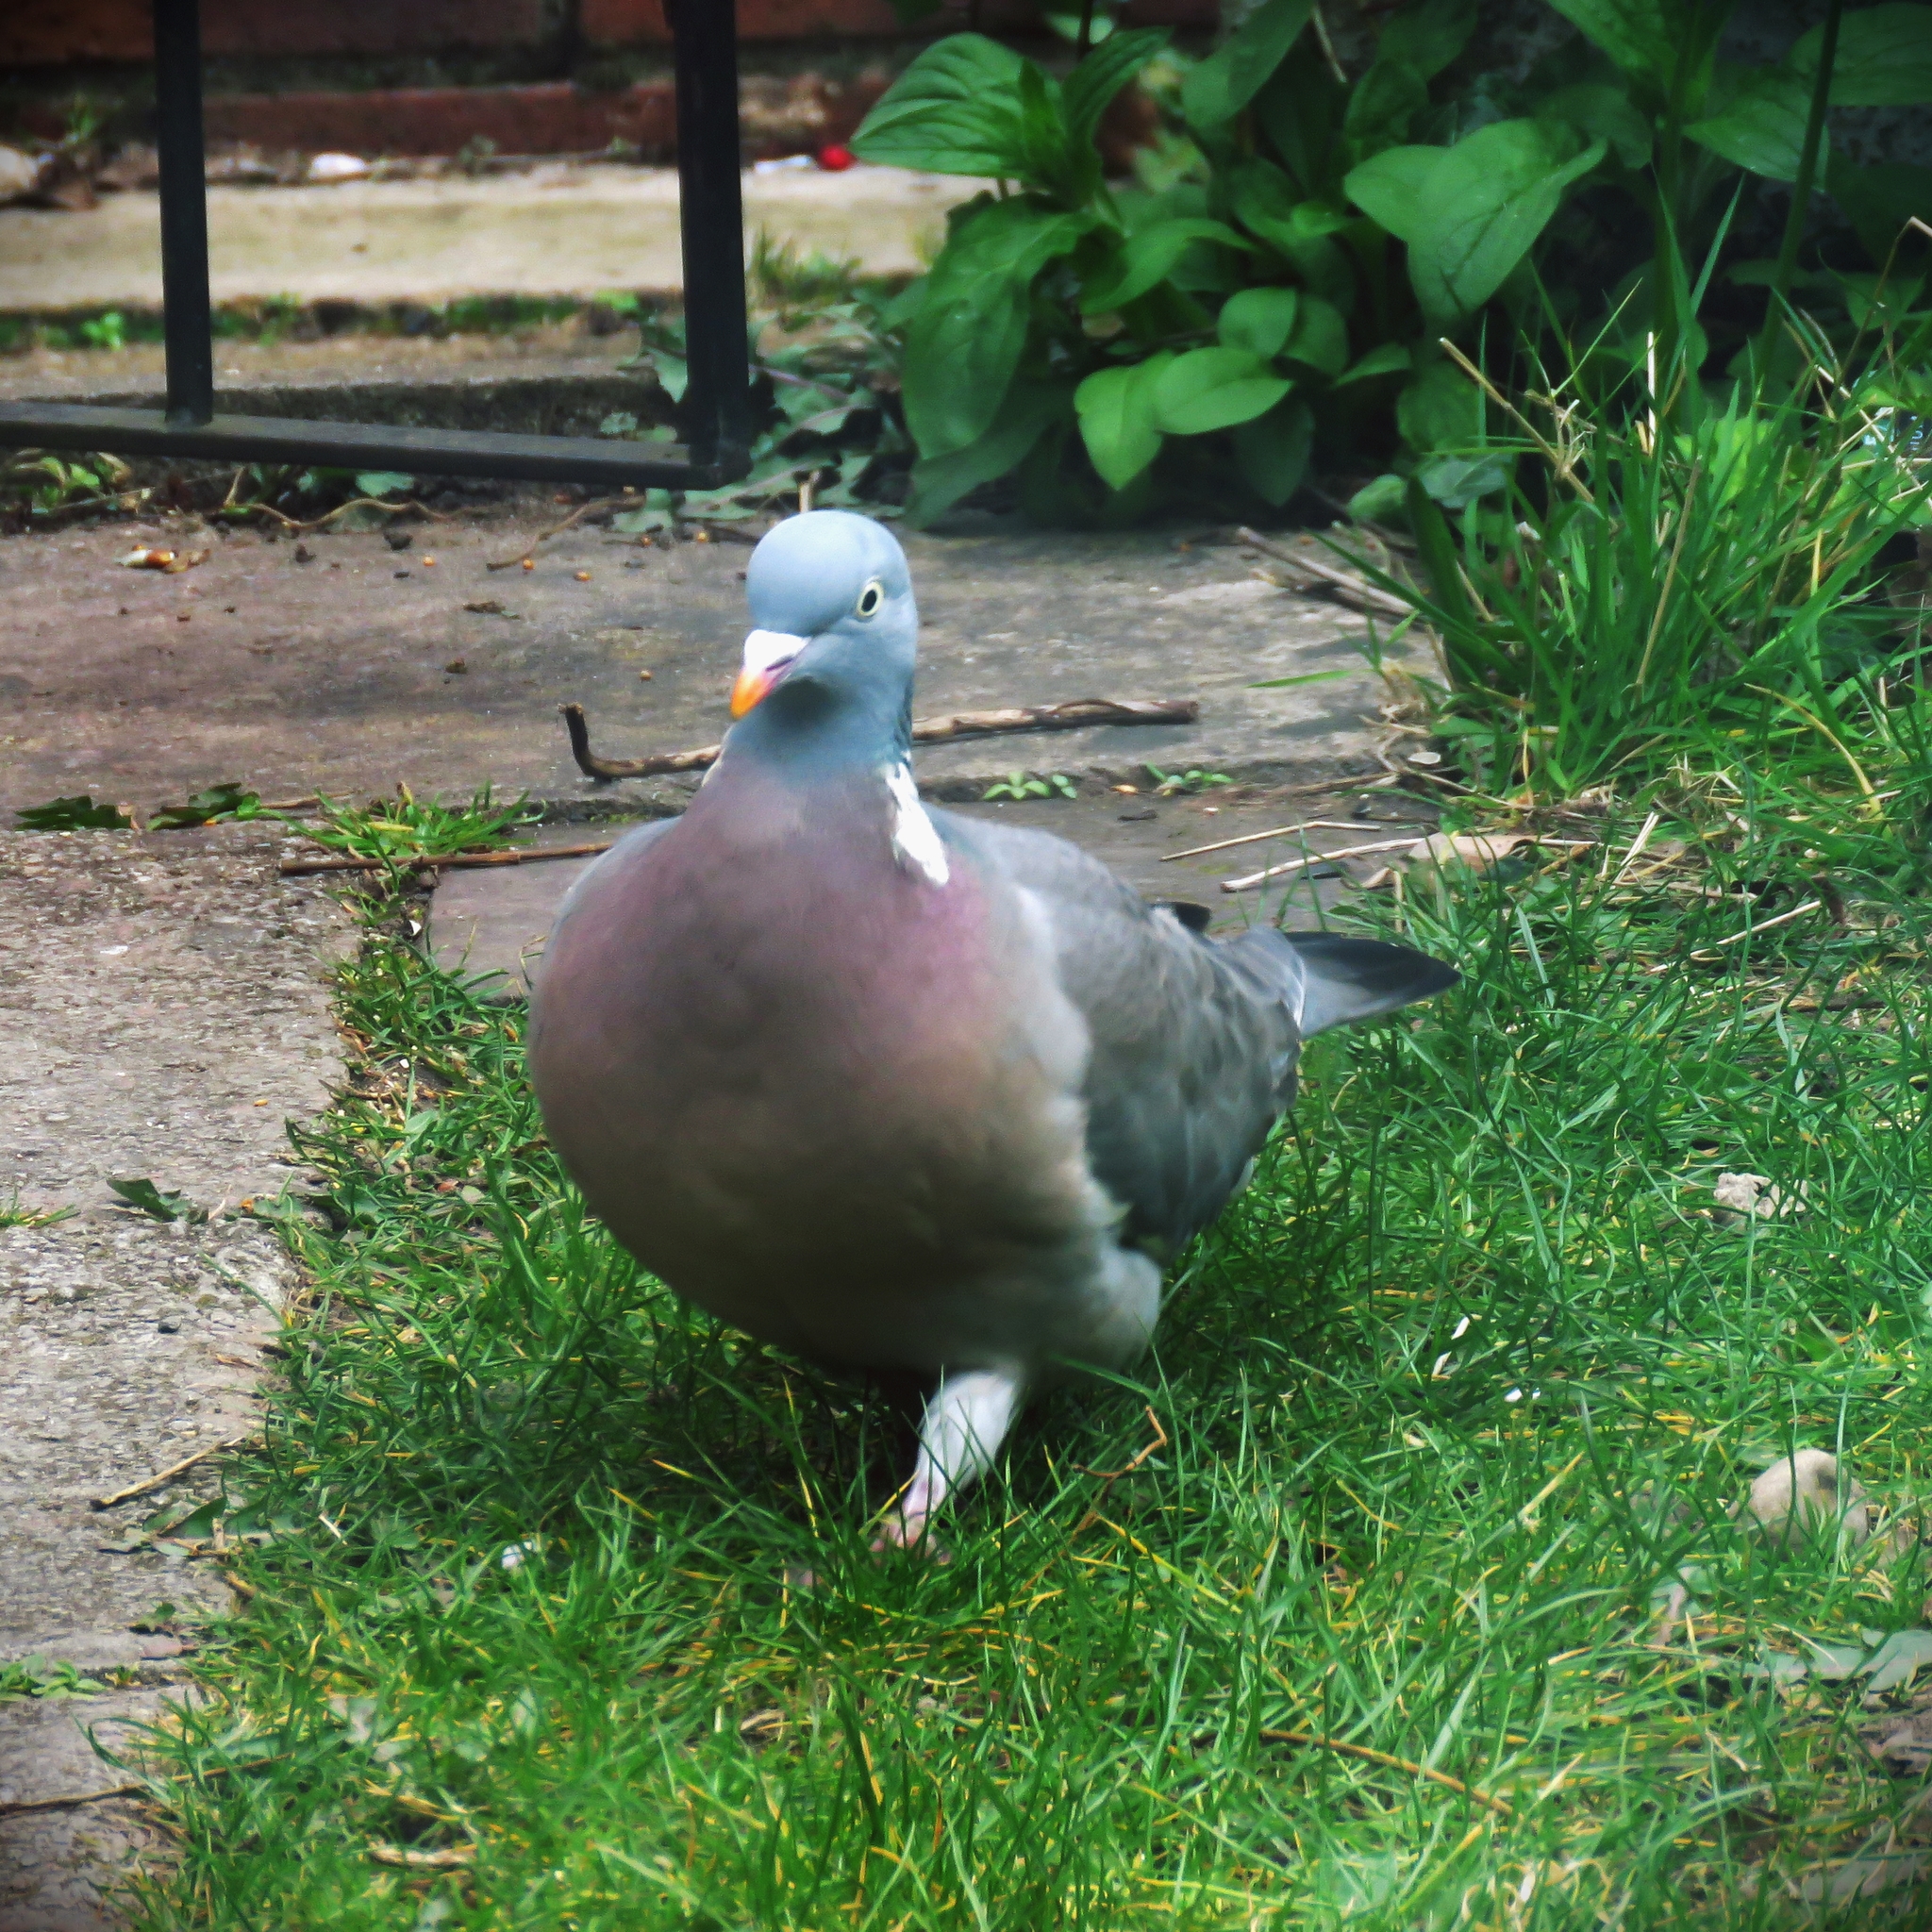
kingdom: Animalia
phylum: Chordata
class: Aves
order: Columbiformes
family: Columbidae
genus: Columba
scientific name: Columba palumbus
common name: Common wood pigeon
